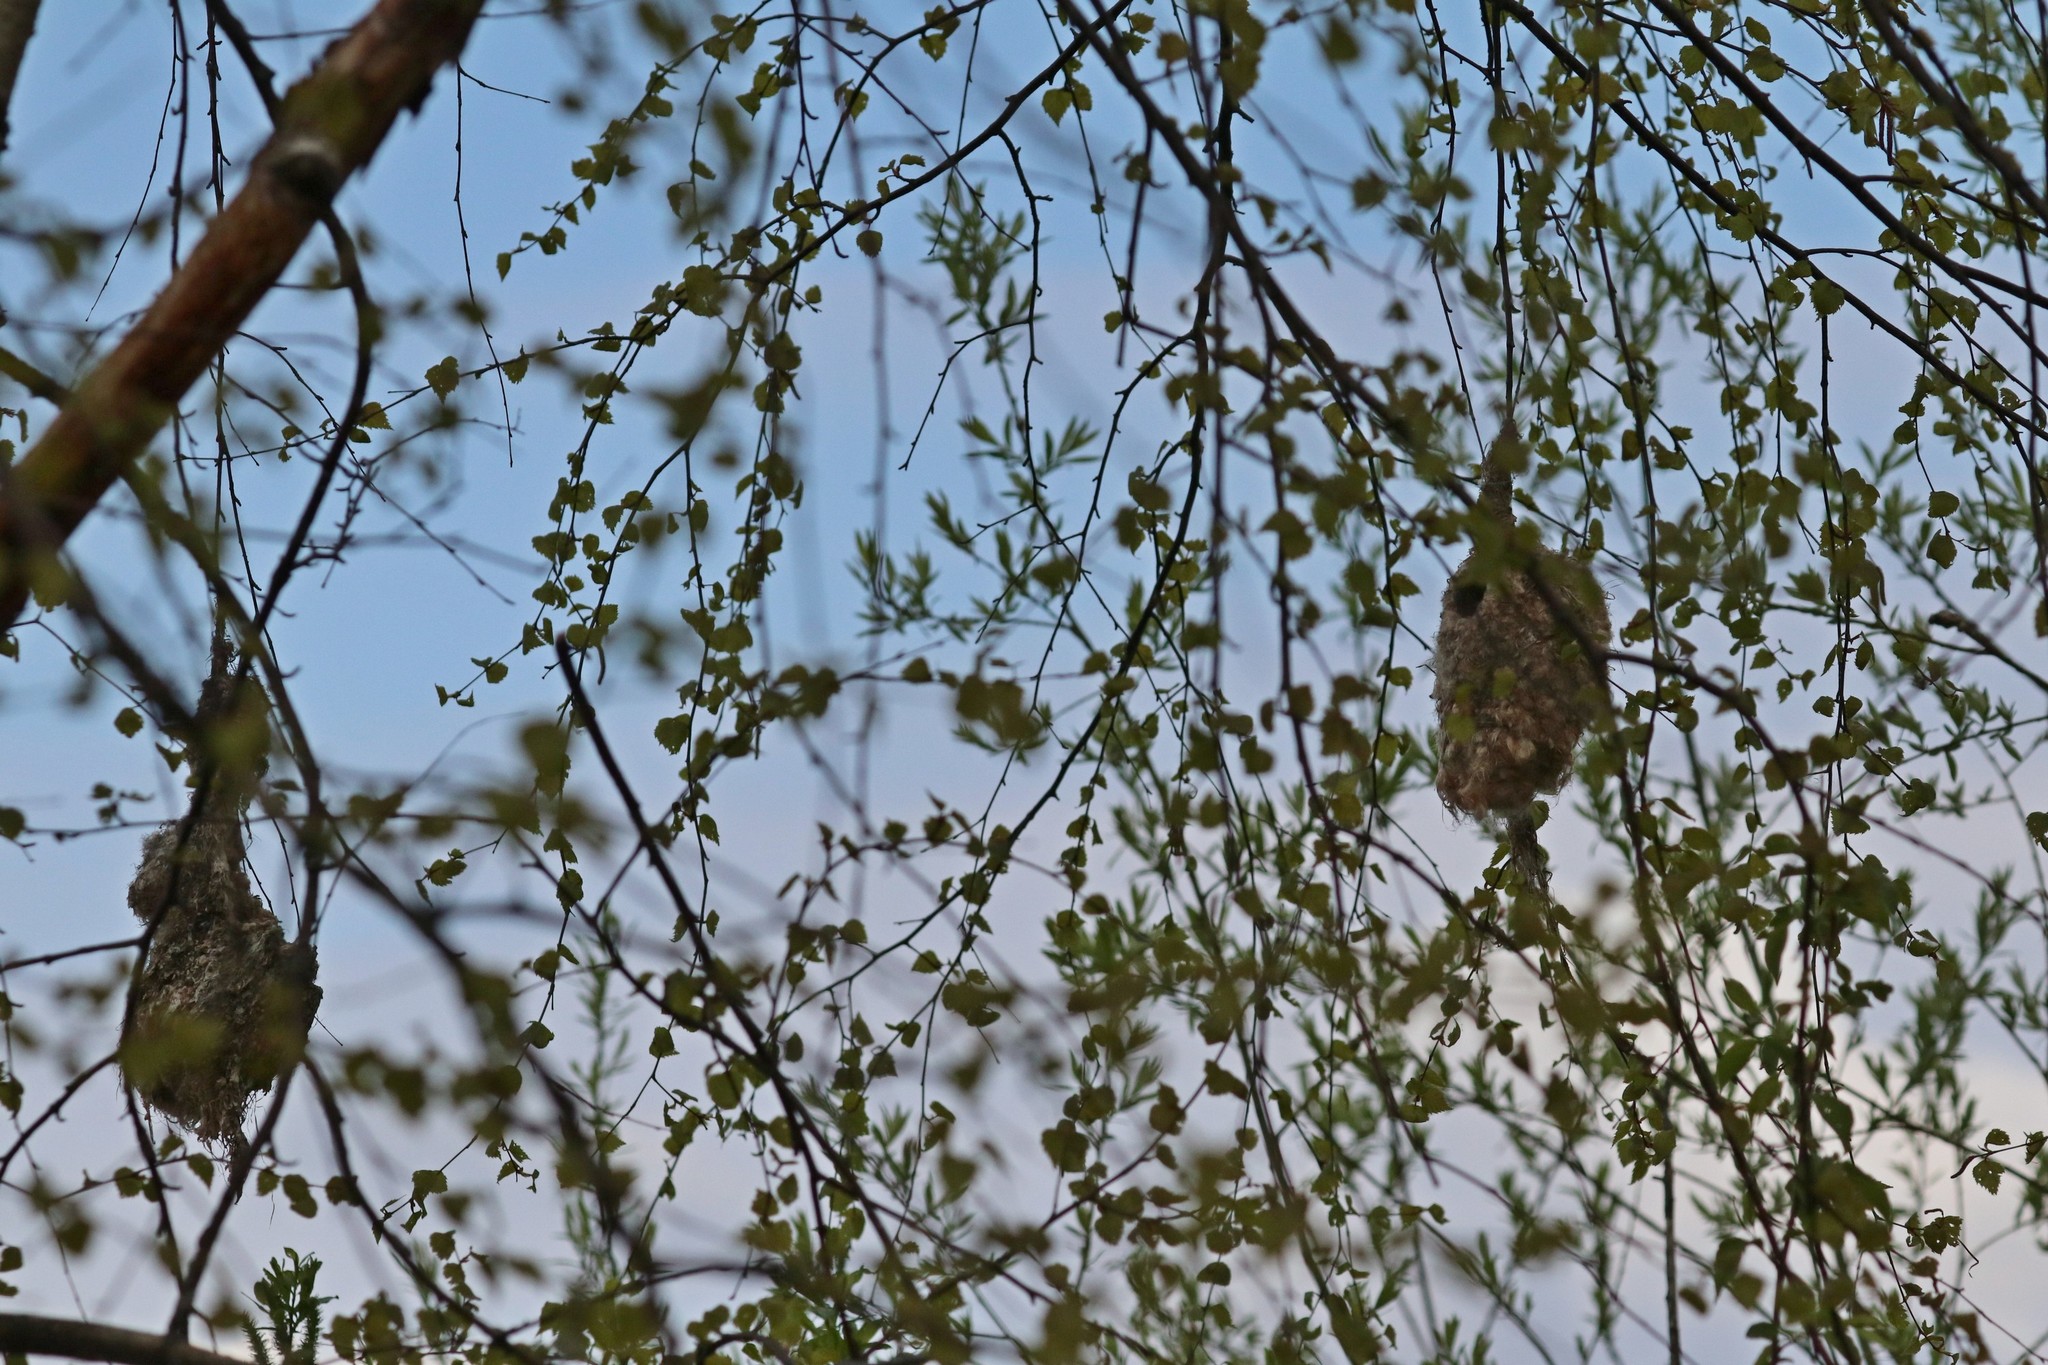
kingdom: Animalia
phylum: Chordata
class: Aves
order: Passeriformes
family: Remizidae
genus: Remiz
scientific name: Remiz pendulinus
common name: Eurasian penduline tit
